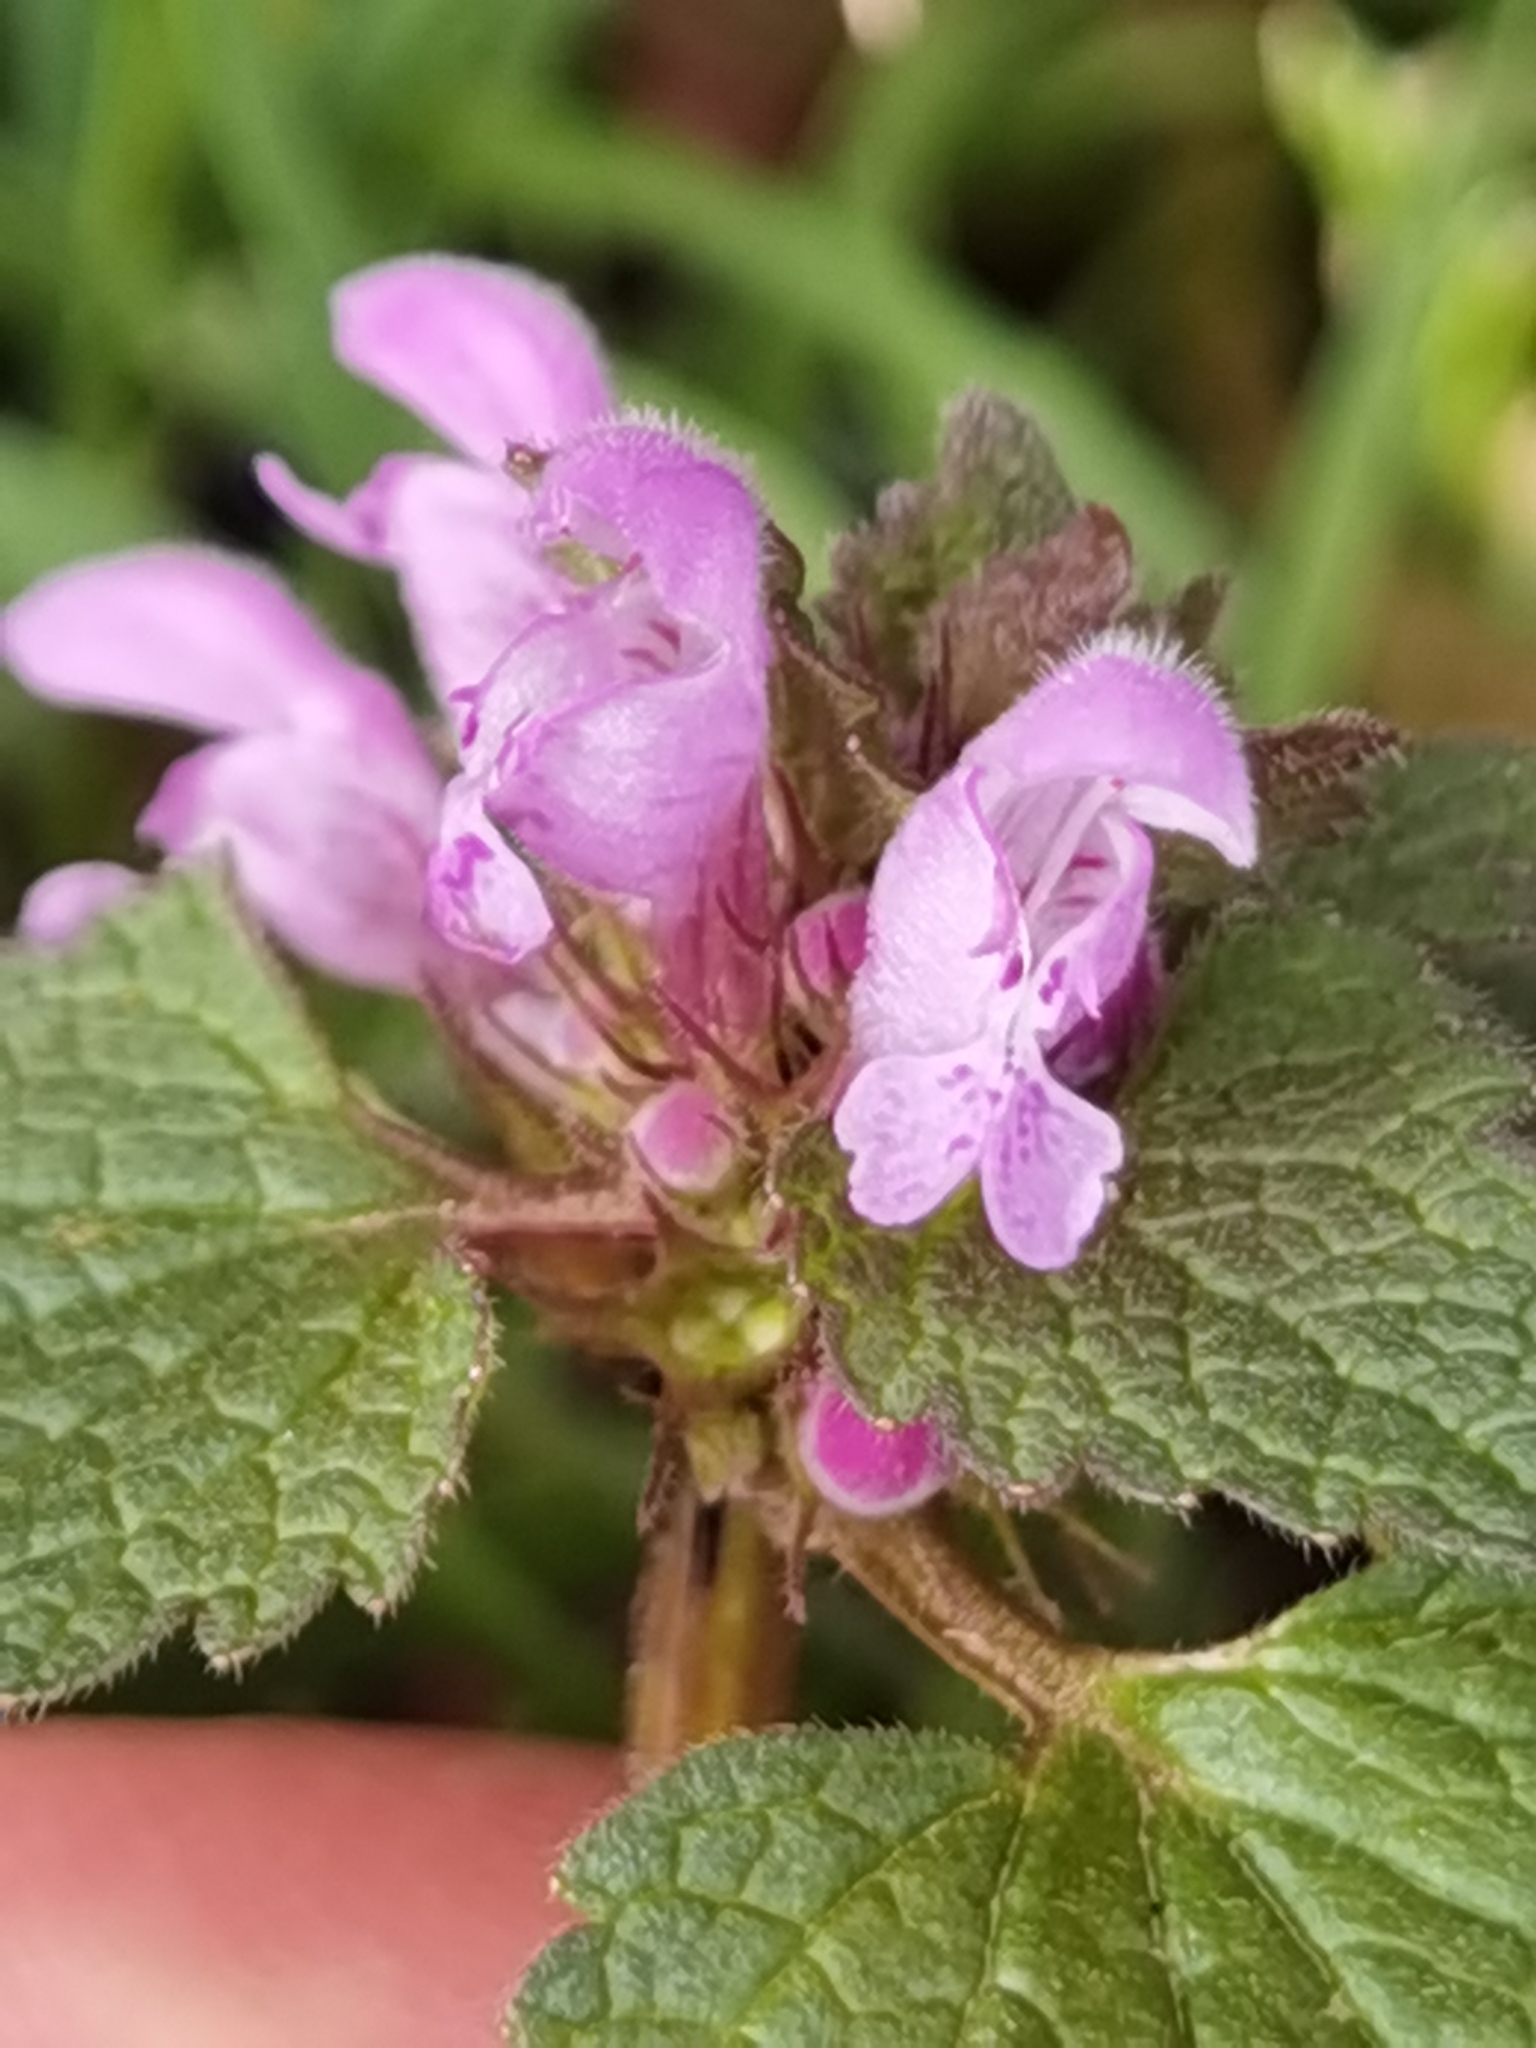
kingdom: Plantae
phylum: Tracheophyta
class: Magnoliopsida
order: Lamiales
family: Lamiaceae
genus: Lamium
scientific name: Lamium purpureum
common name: Red dead-nettle
